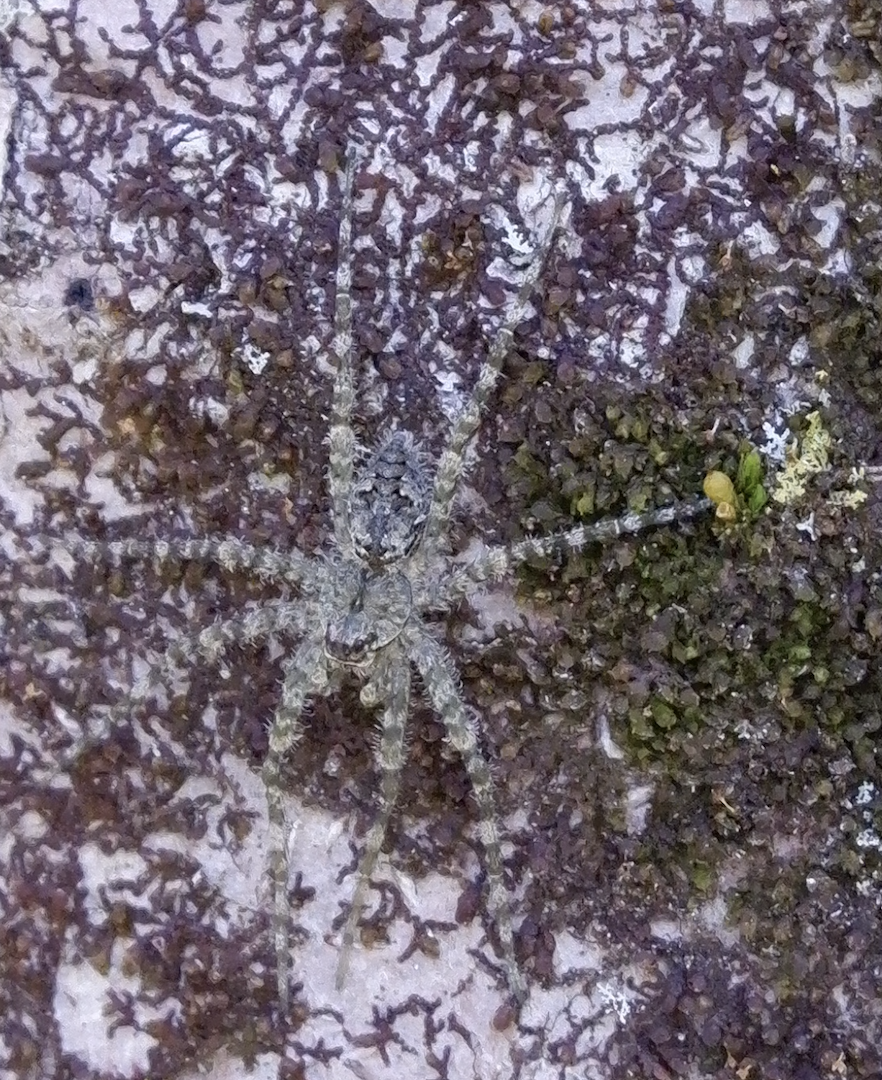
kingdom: Animalia
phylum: Arthropoda
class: Arachnida
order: Araneae
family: Pisauridae
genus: Dolomedes
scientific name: Dolomedes albineus
